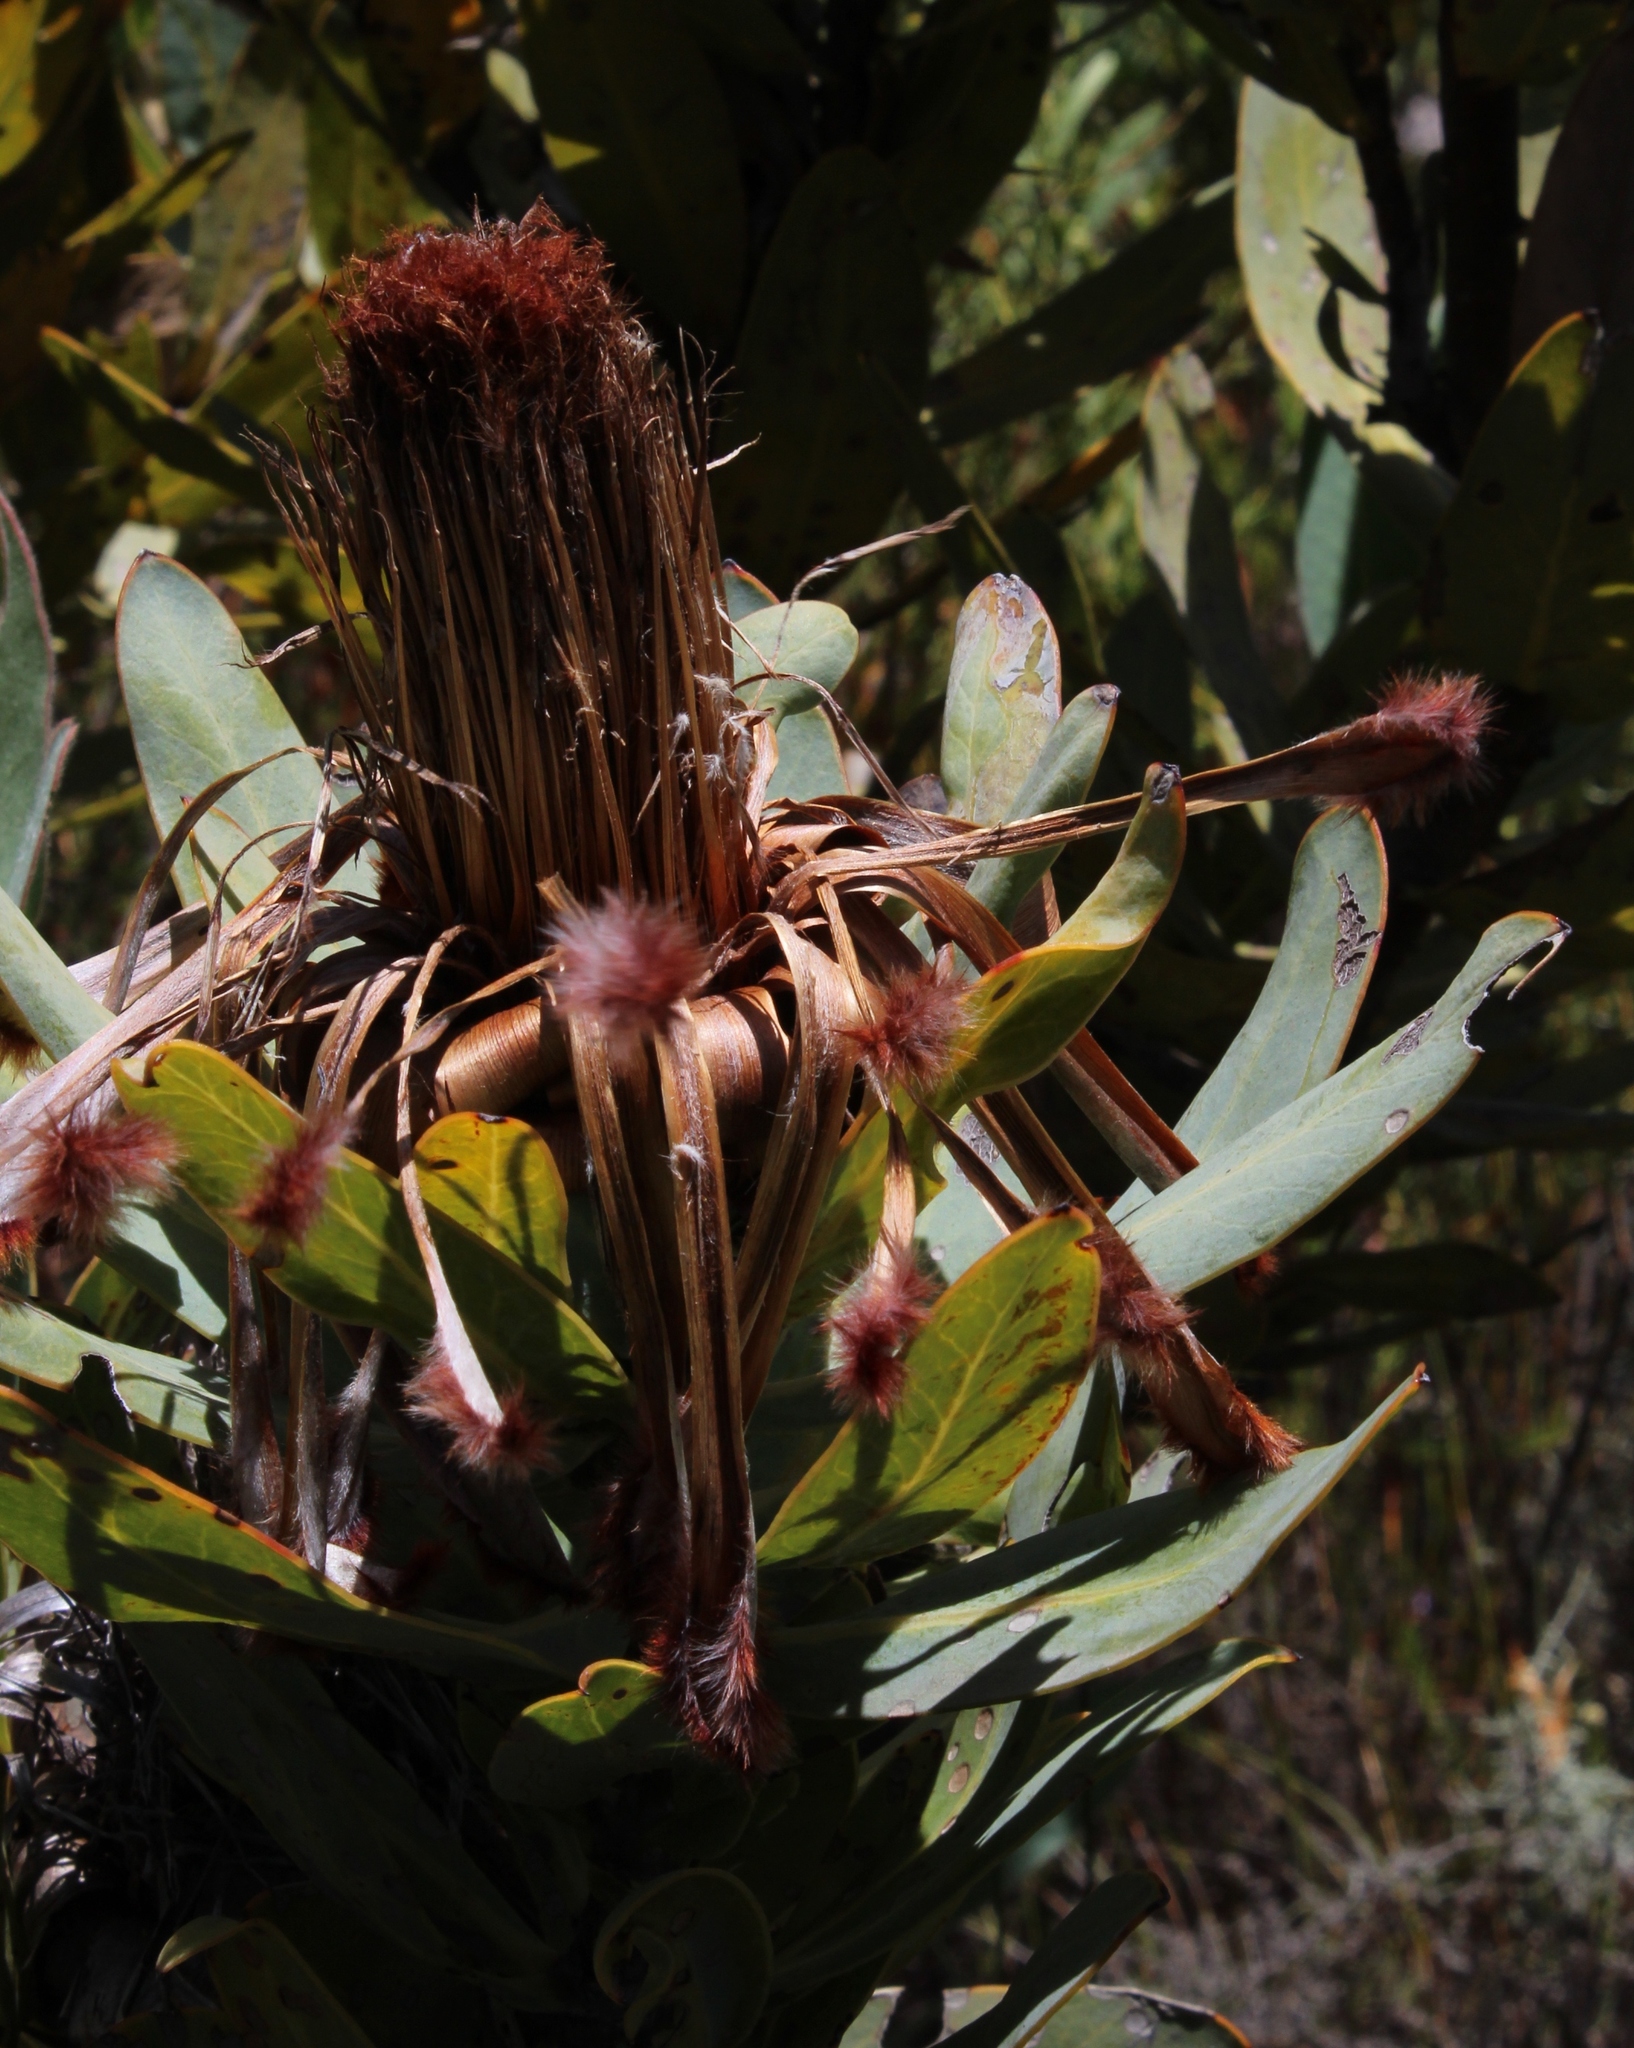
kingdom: Plantae
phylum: Tracheophyta
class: Magnoliopsida
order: Proteales
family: Proteaceae
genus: Protea
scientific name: Protea laurifolia
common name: Grey-leaf sugarbsh
